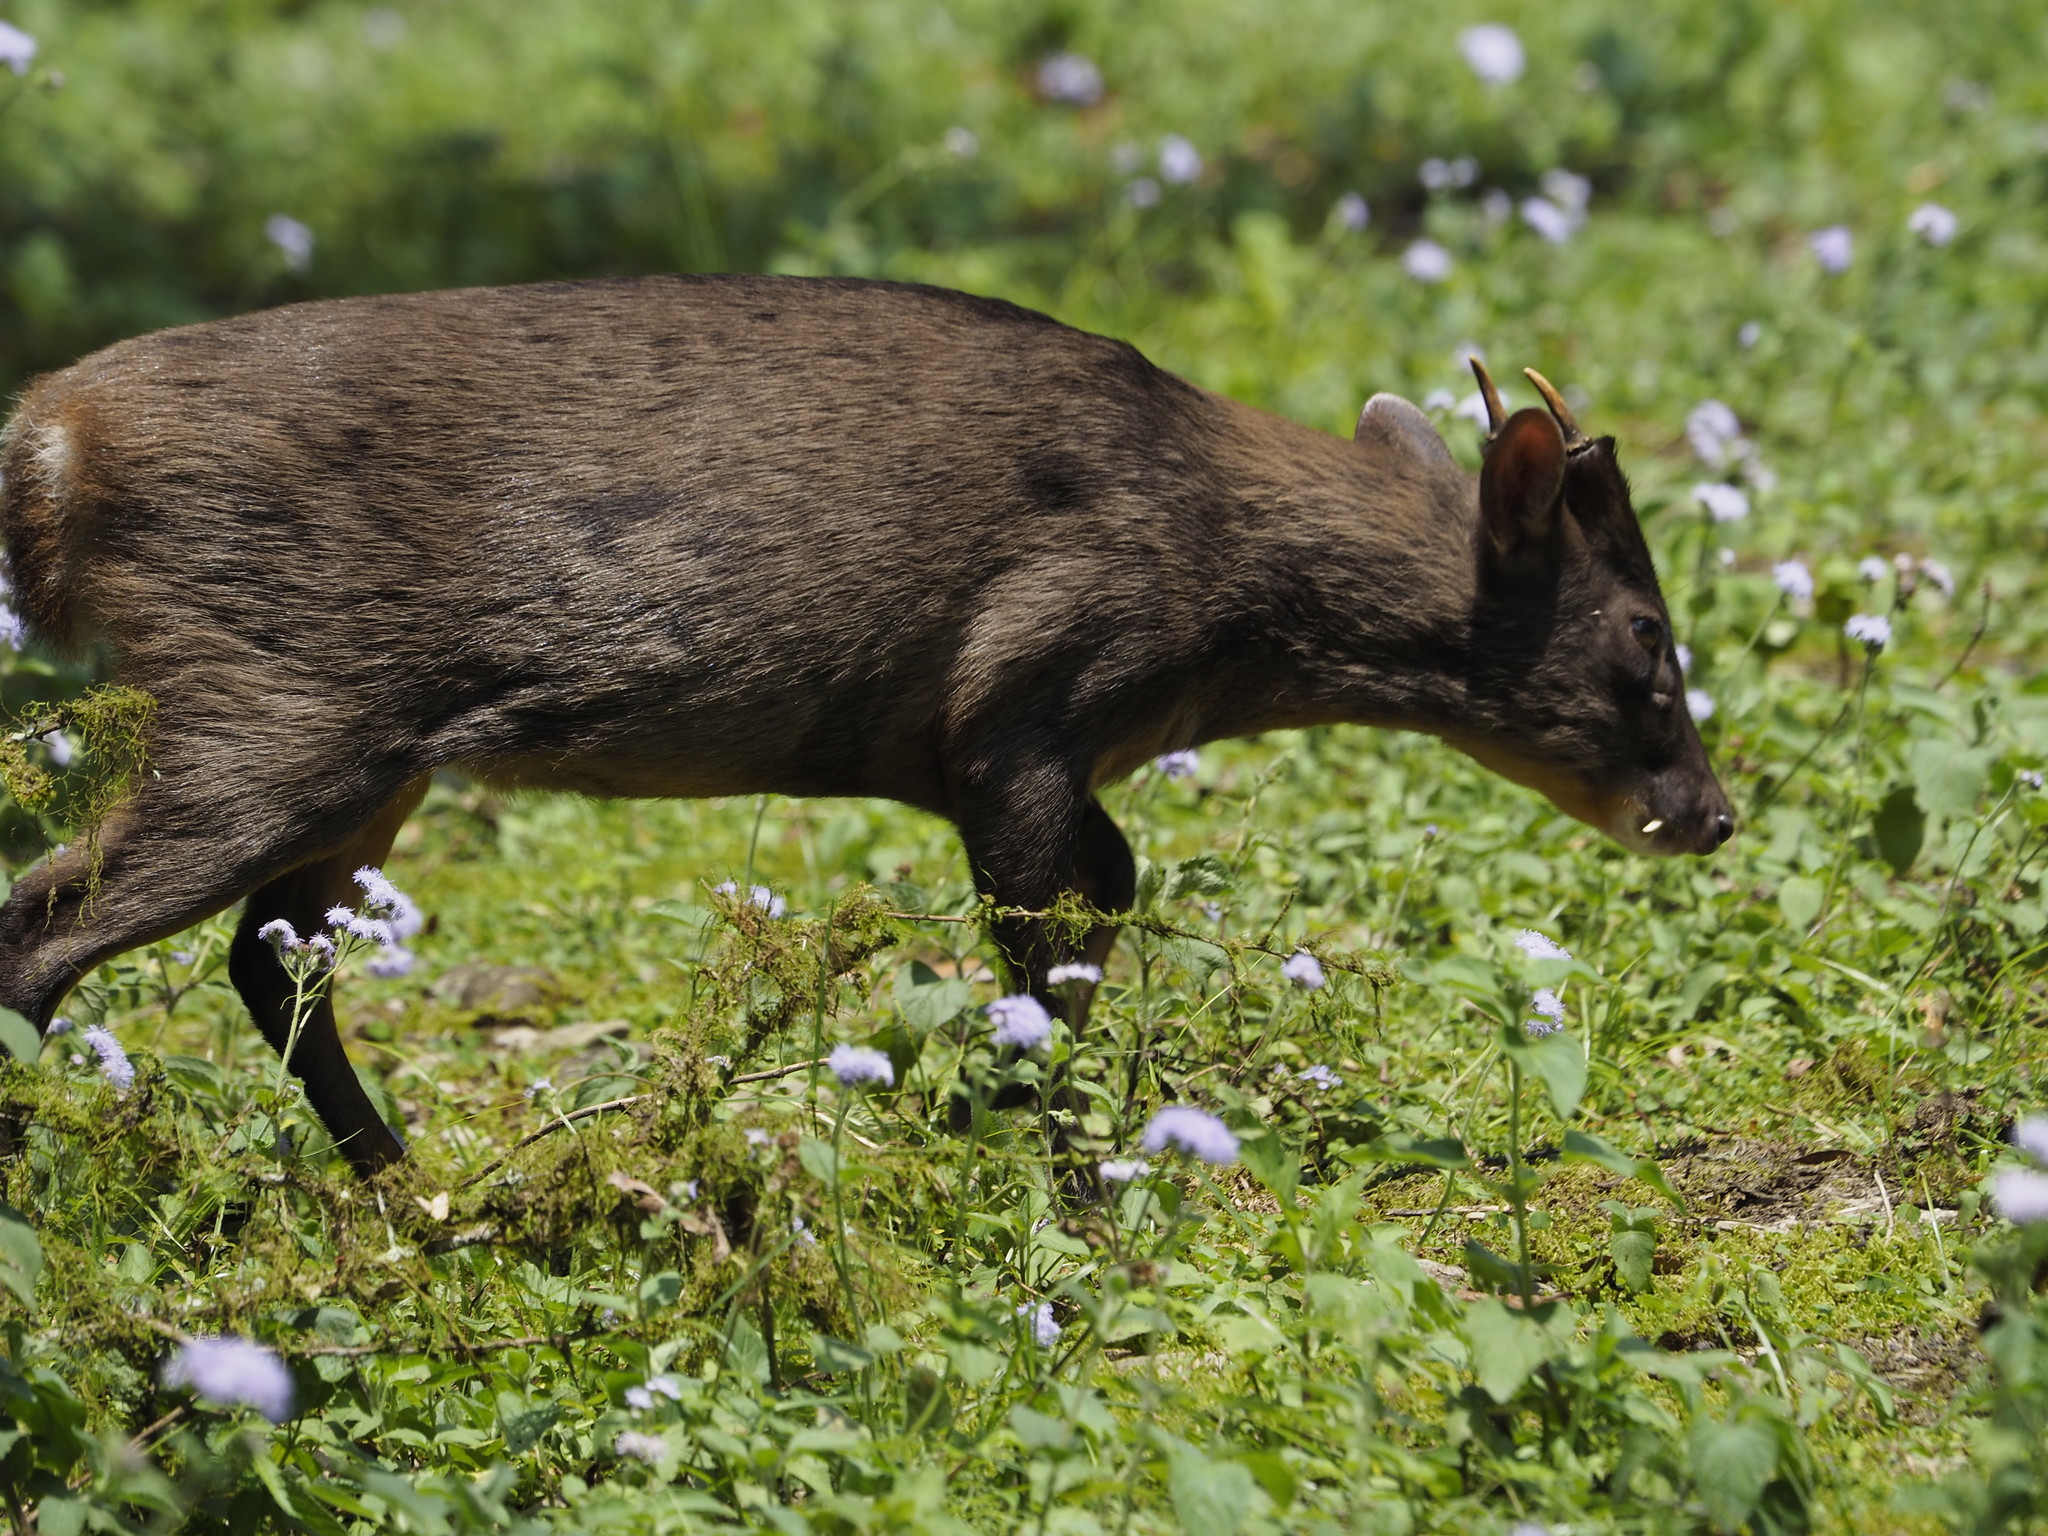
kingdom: Animalia
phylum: Chordata
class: Mammalia
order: Artiodactyla
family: Cervidae
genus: Muntiacus
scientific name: Muntiacus reevesi
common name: Reeves' muntjac
